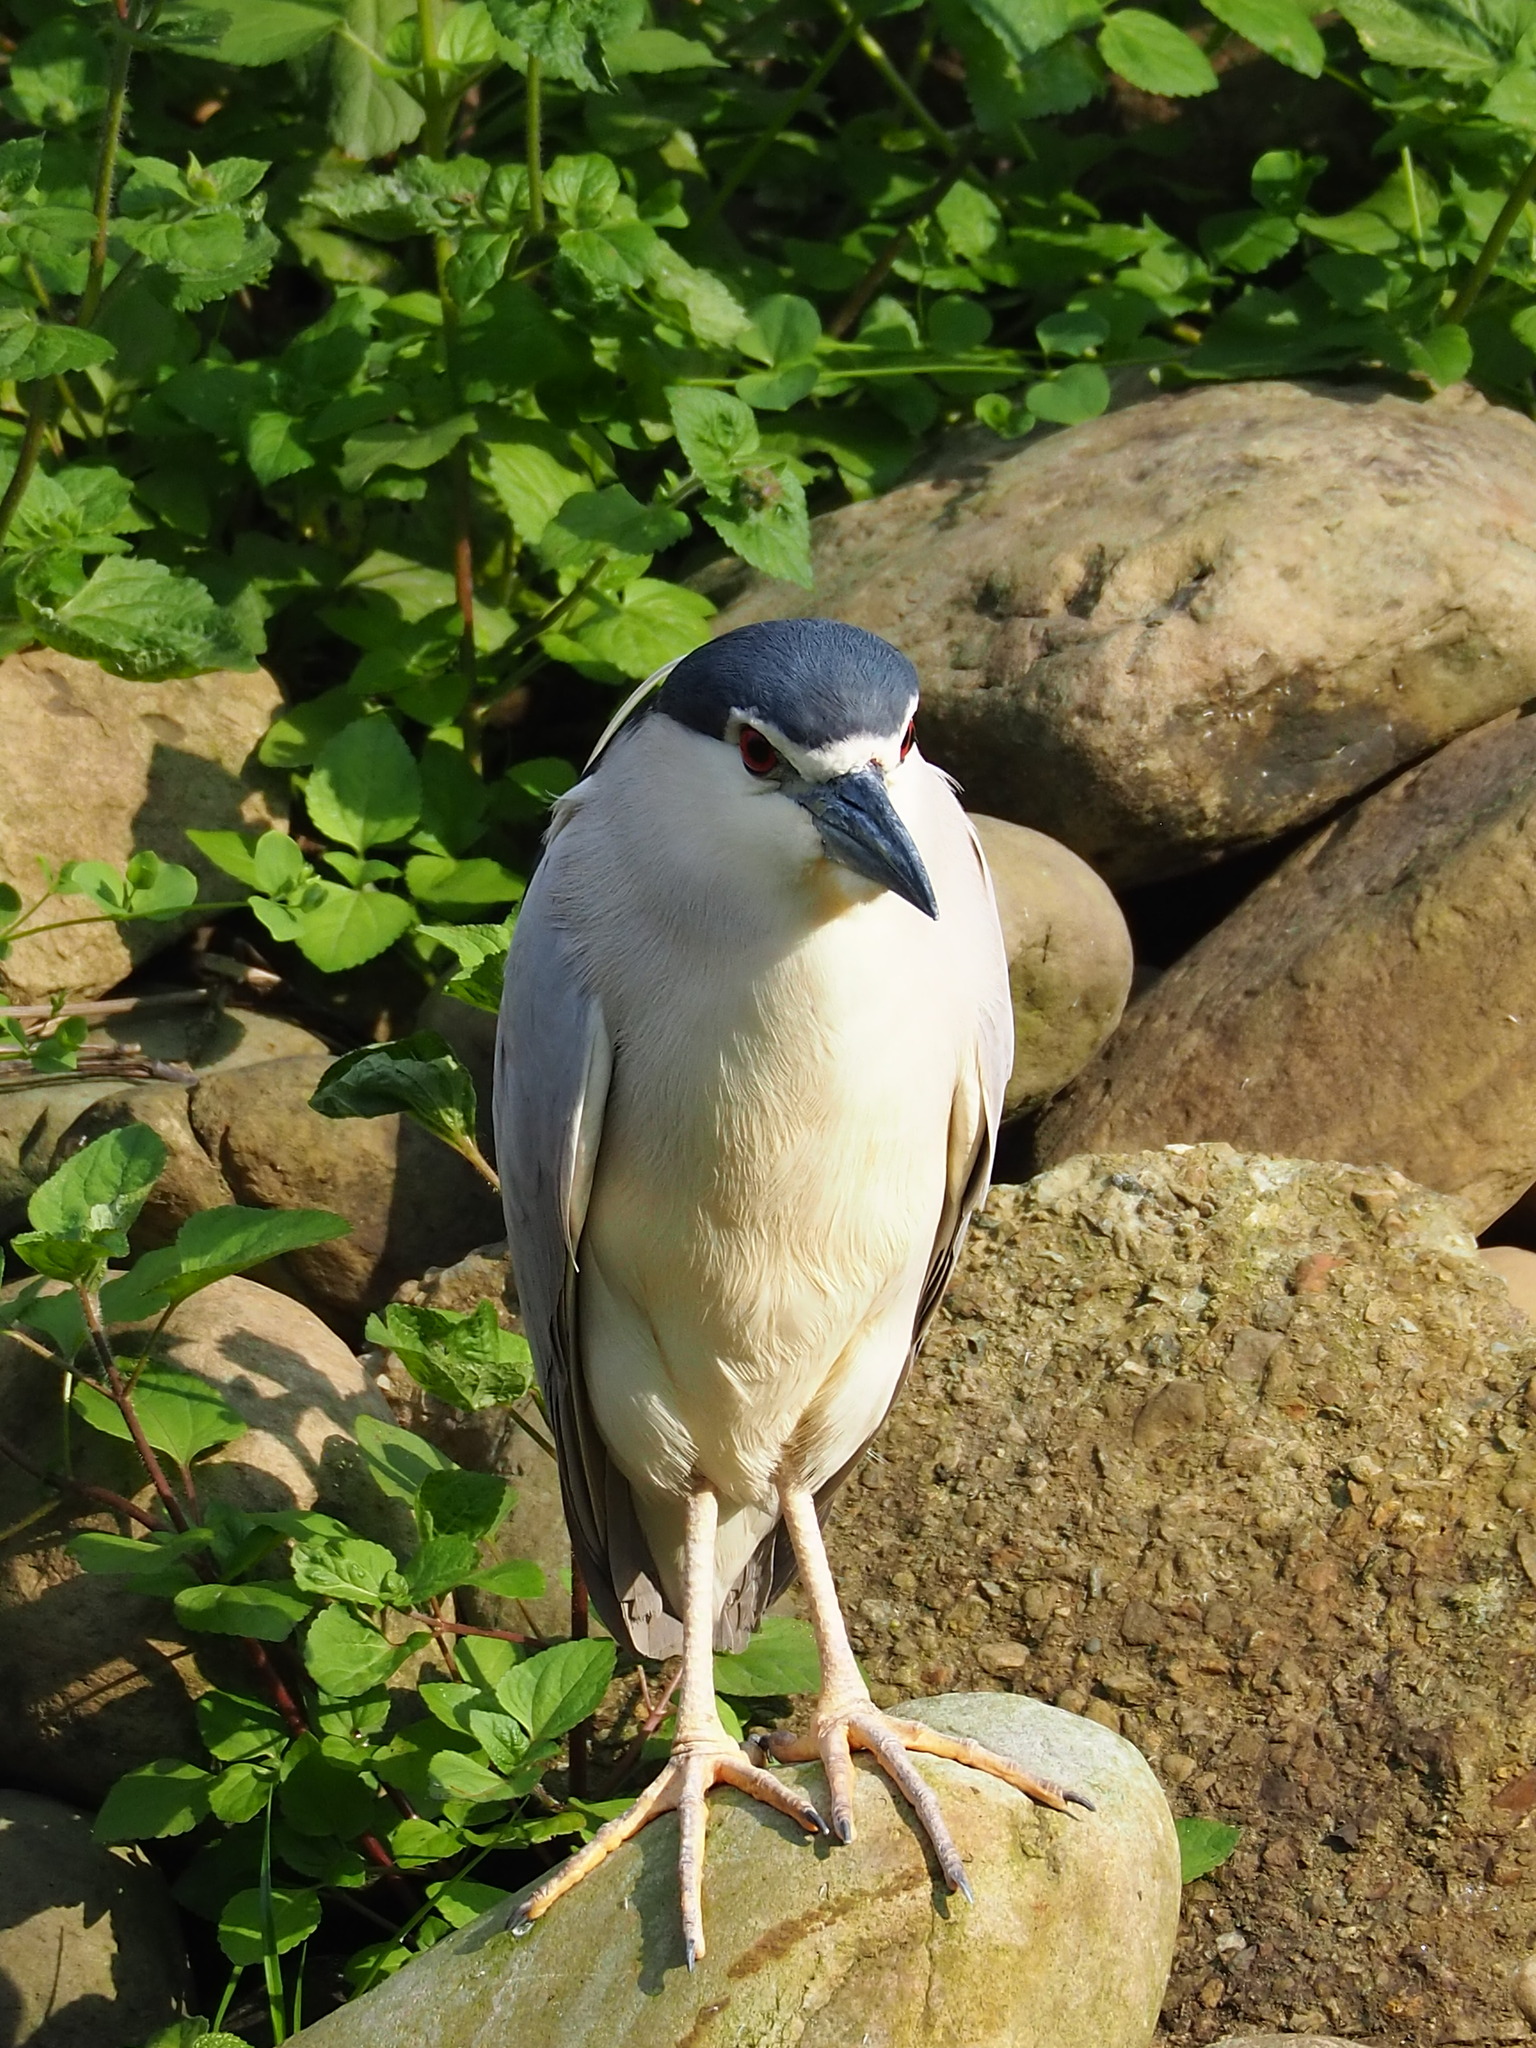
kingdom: Animalia
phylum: Chordata
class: Aves
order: Pelecaniformes
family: Ardeidae
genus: Nycticorax
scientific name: Nycticorax nycticorax
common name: Black-crowned night heron
